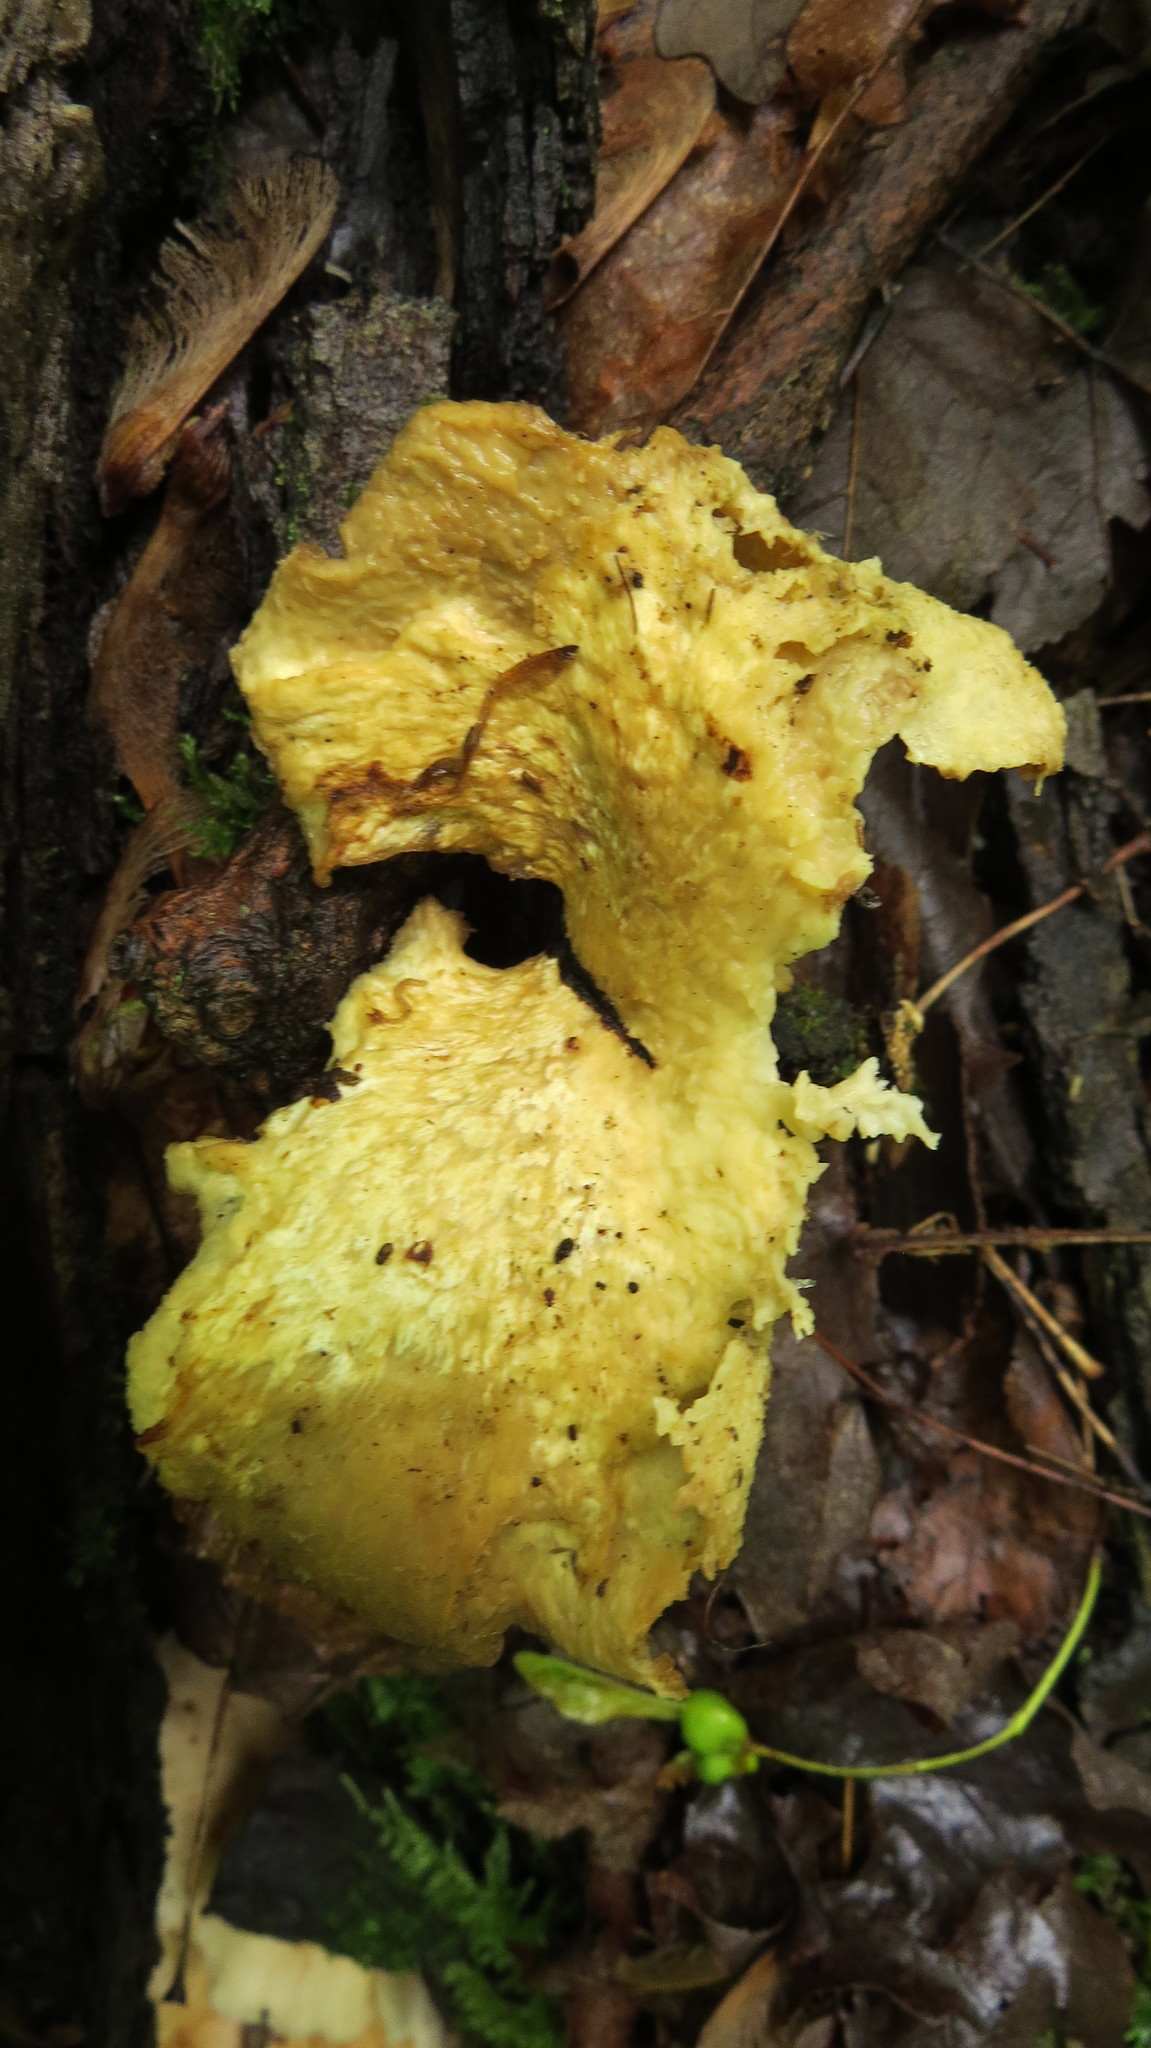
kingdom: Fungi
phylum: Basidiomycota
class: Agaricomycetes
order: Polyporales
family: Polyporaceae
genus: Cerioporus
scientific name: Cerioporus squamosus
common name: Dryad's saddle
